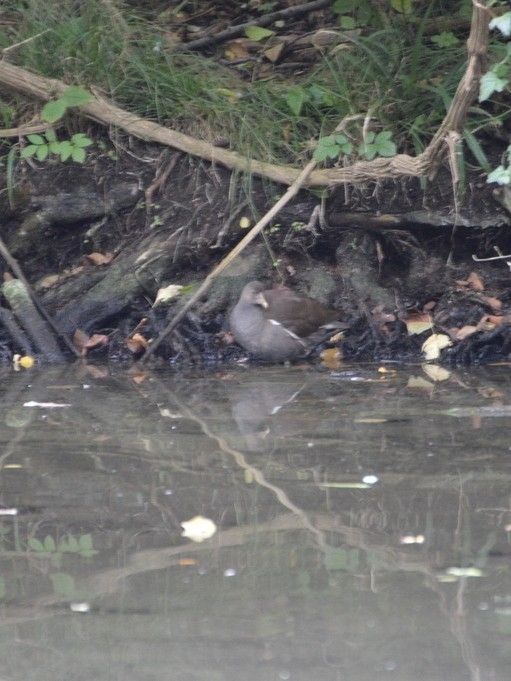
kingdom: Animalia
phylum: Chordata
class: Aves
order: Gruiformes
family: Rallidae
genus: Gallinula
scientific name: Gallinula chloropus
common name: Common moorhen
